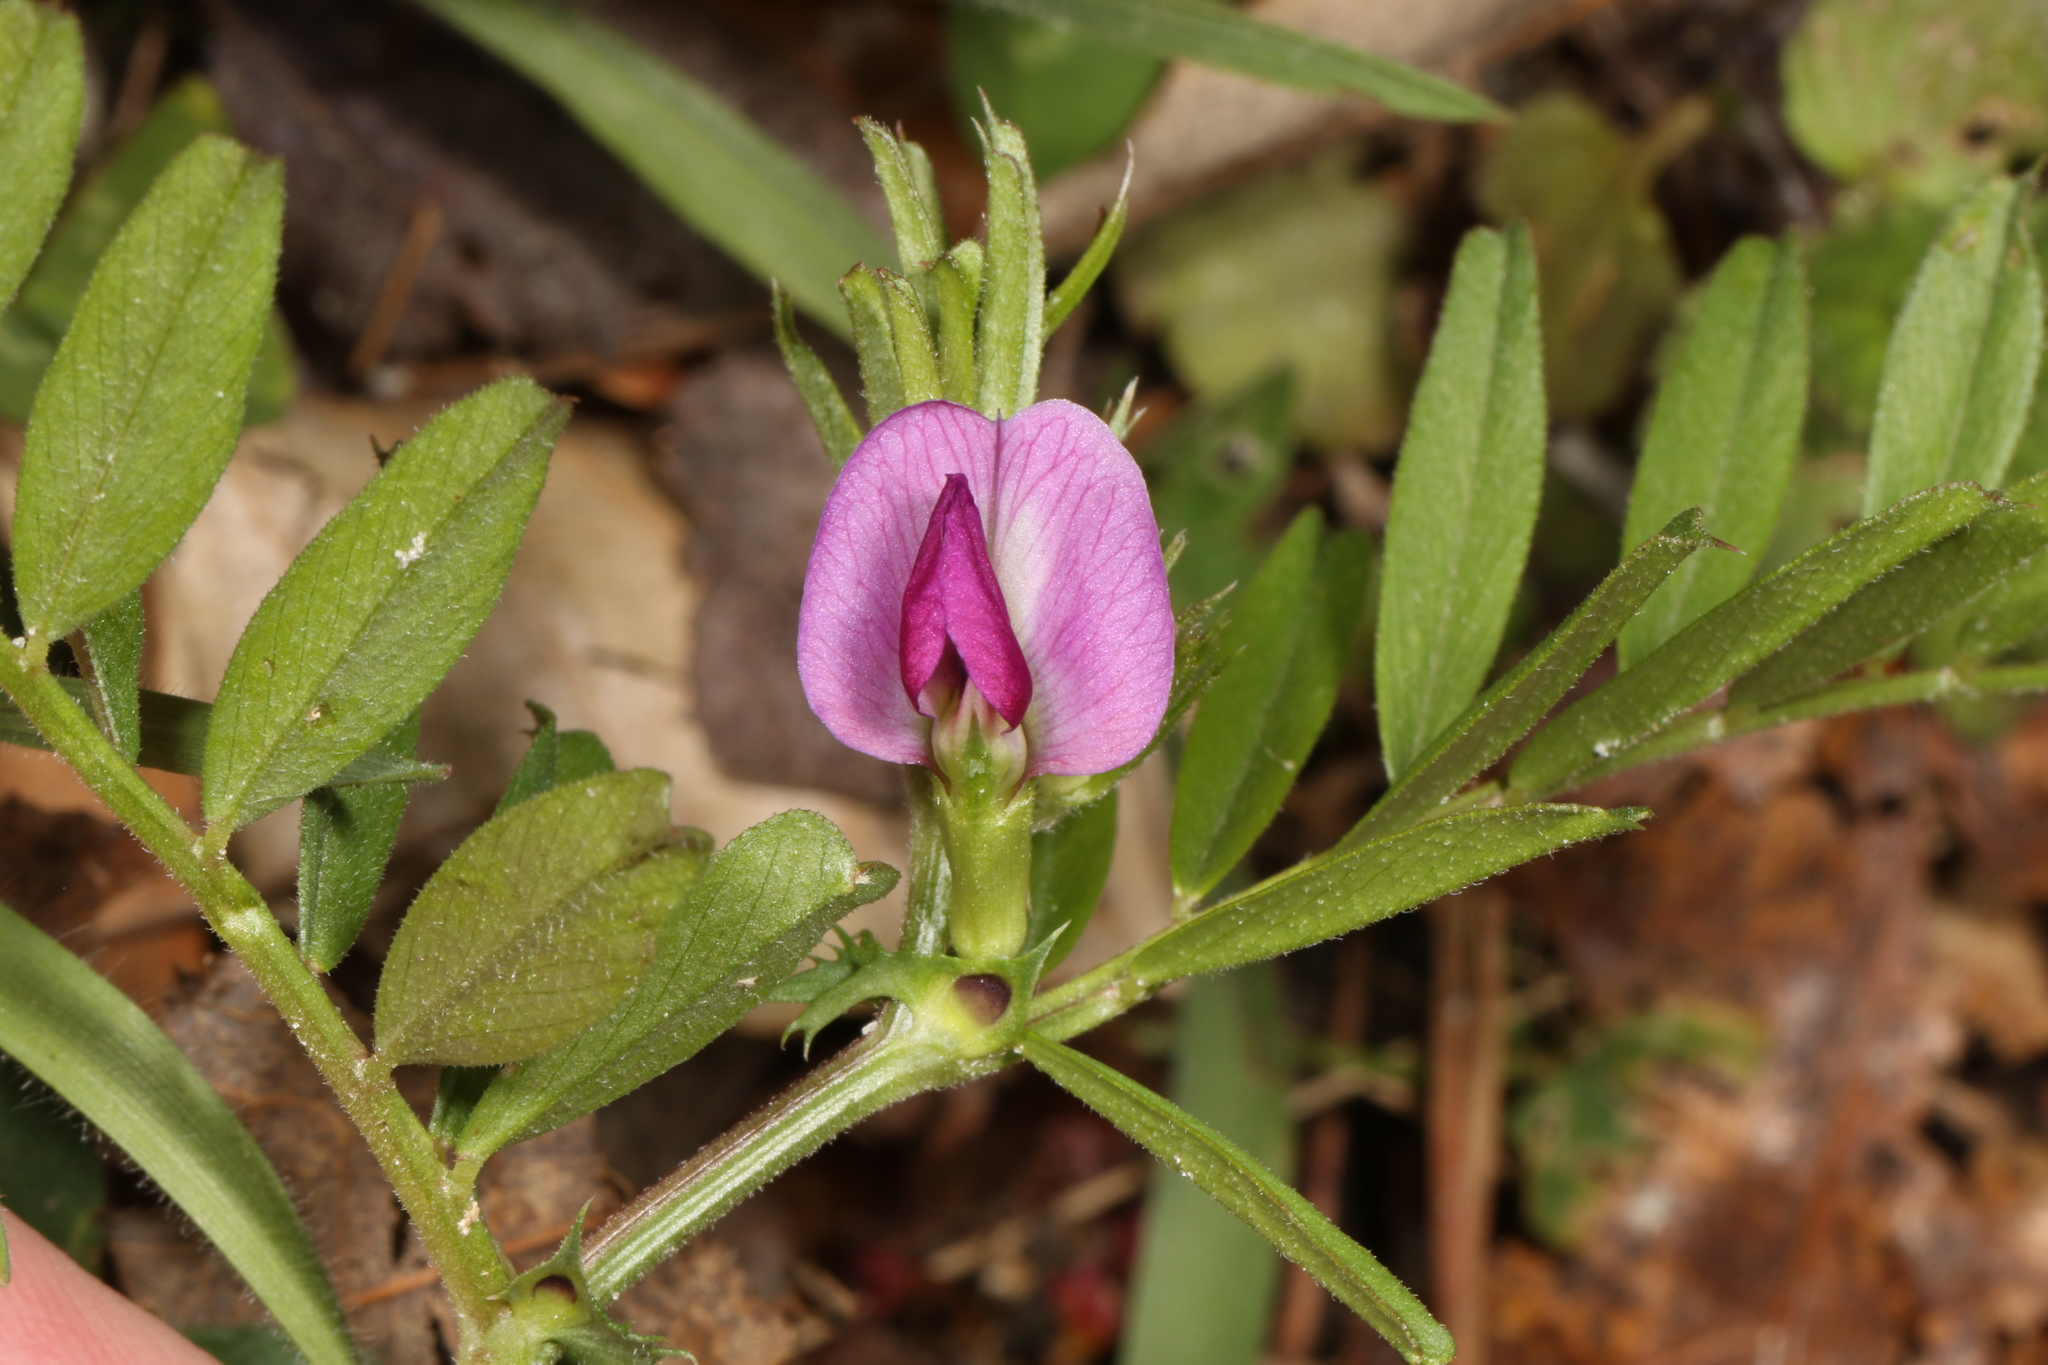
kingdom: Plantae
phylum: Tracheophyta
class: Magnoliopsida
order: Fabales
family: Fabaceae
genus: Vicia
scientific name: Vicia sativa
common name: Garden vetch
